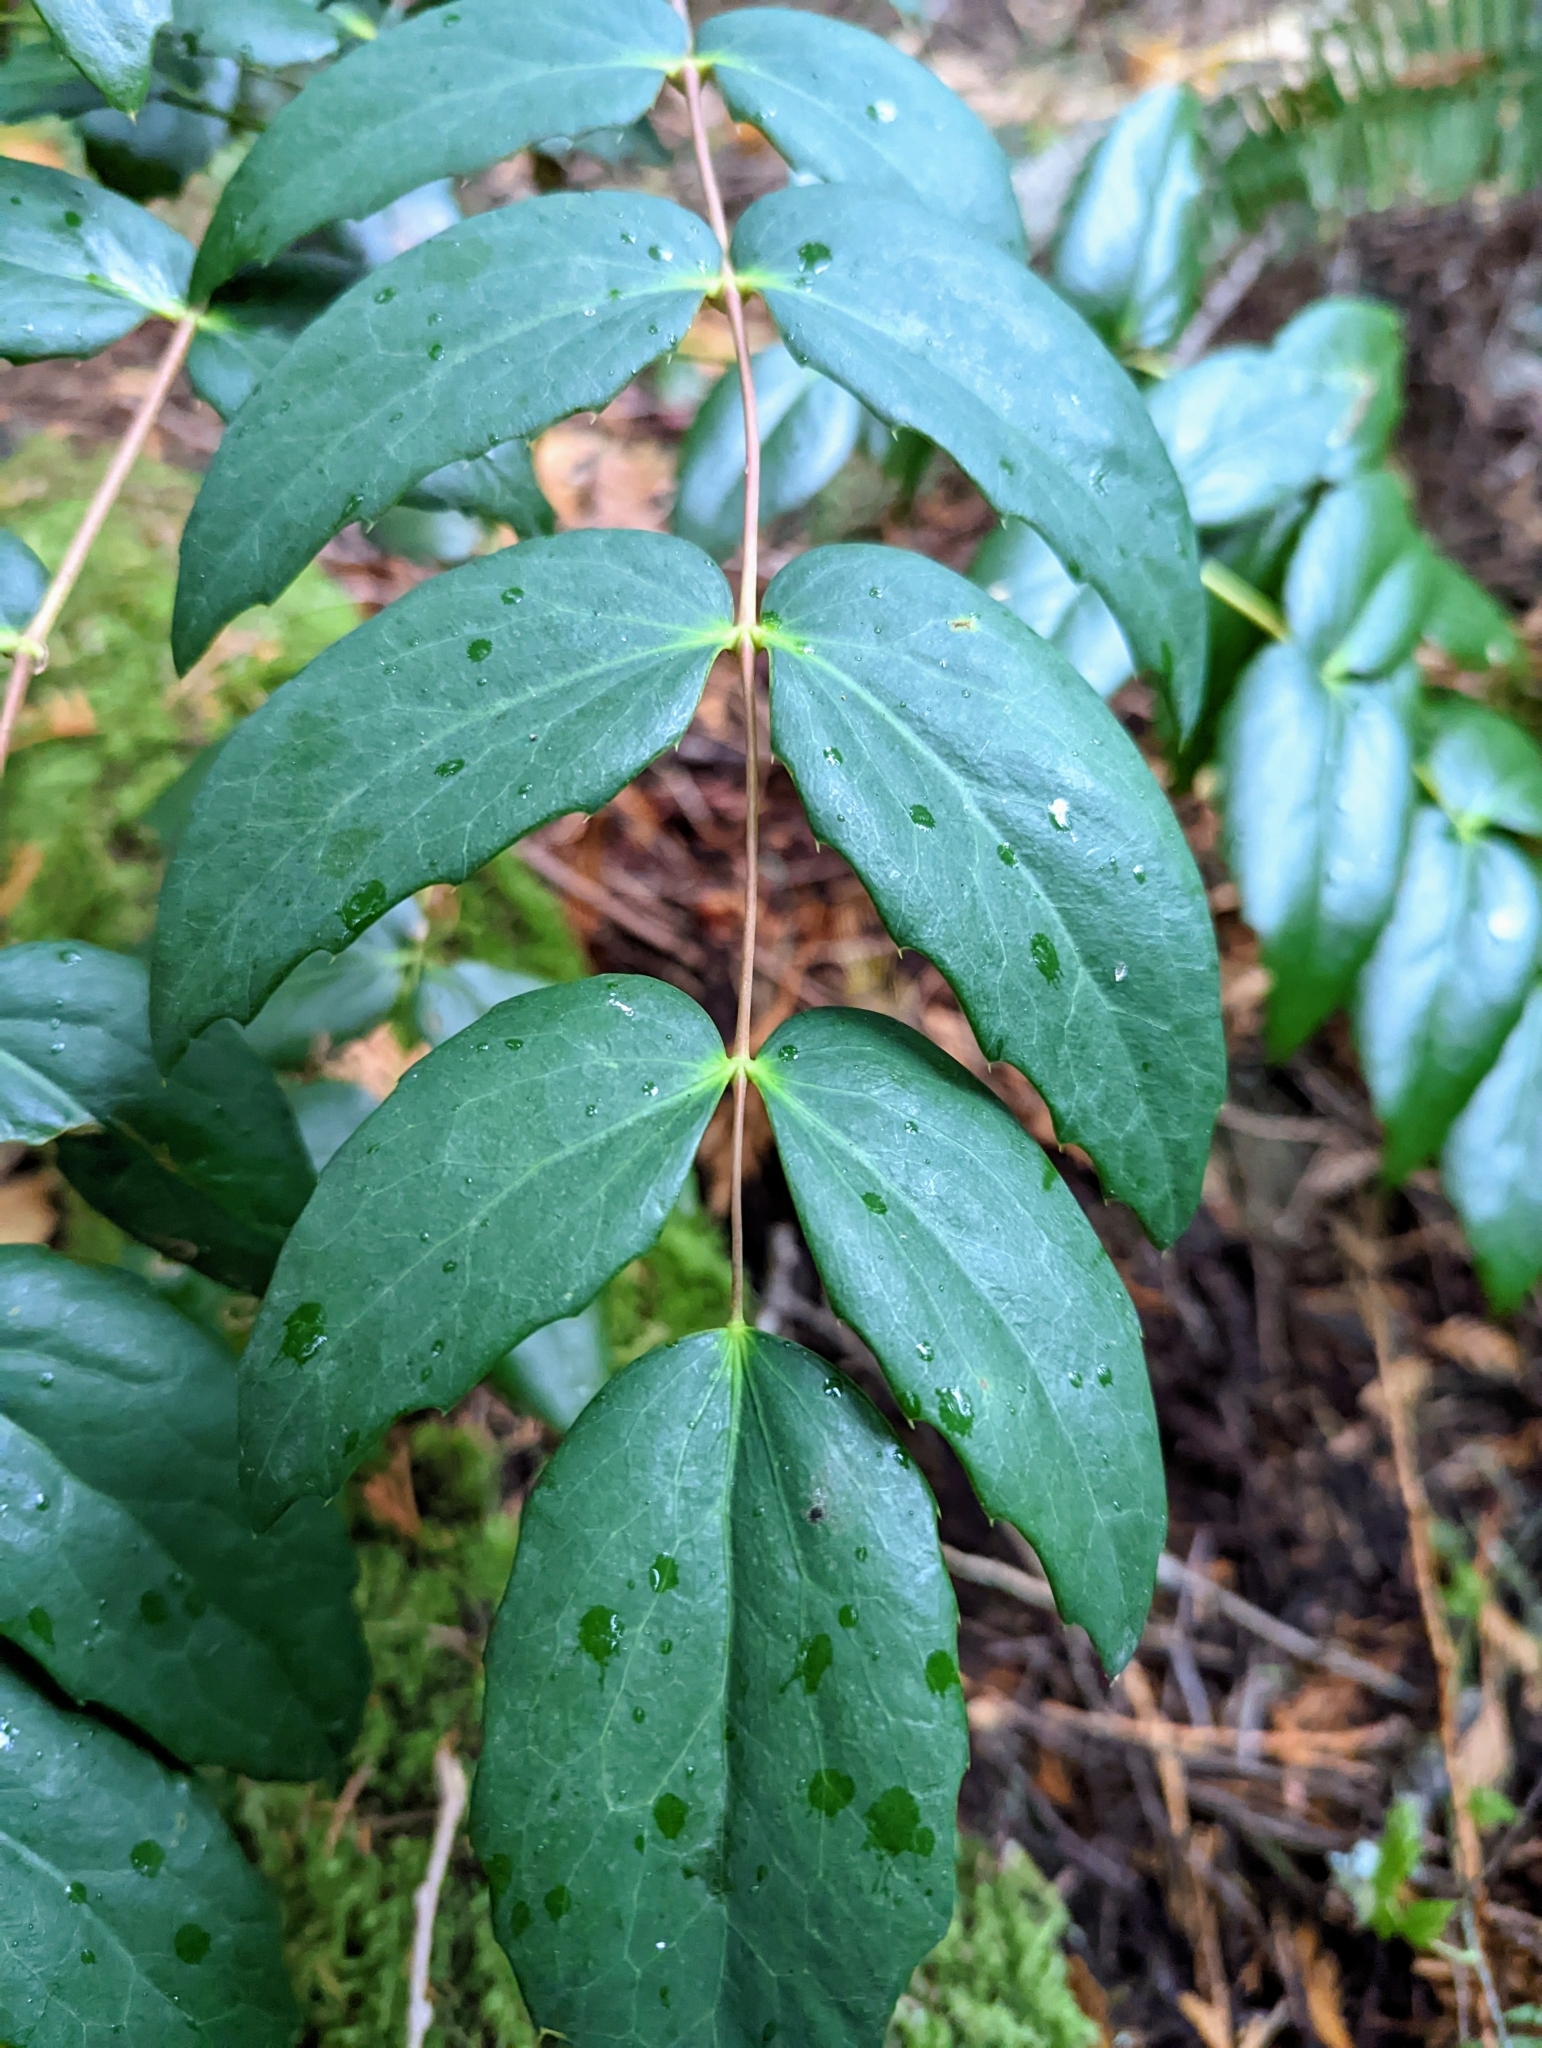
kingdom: Plantae
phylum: Tracheophyta
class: Magnoliopsida
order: Ranunculales
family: Berberidaceae
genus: Mahonia
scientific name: Mahonia nervosa
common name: Cascade oregon-grape
